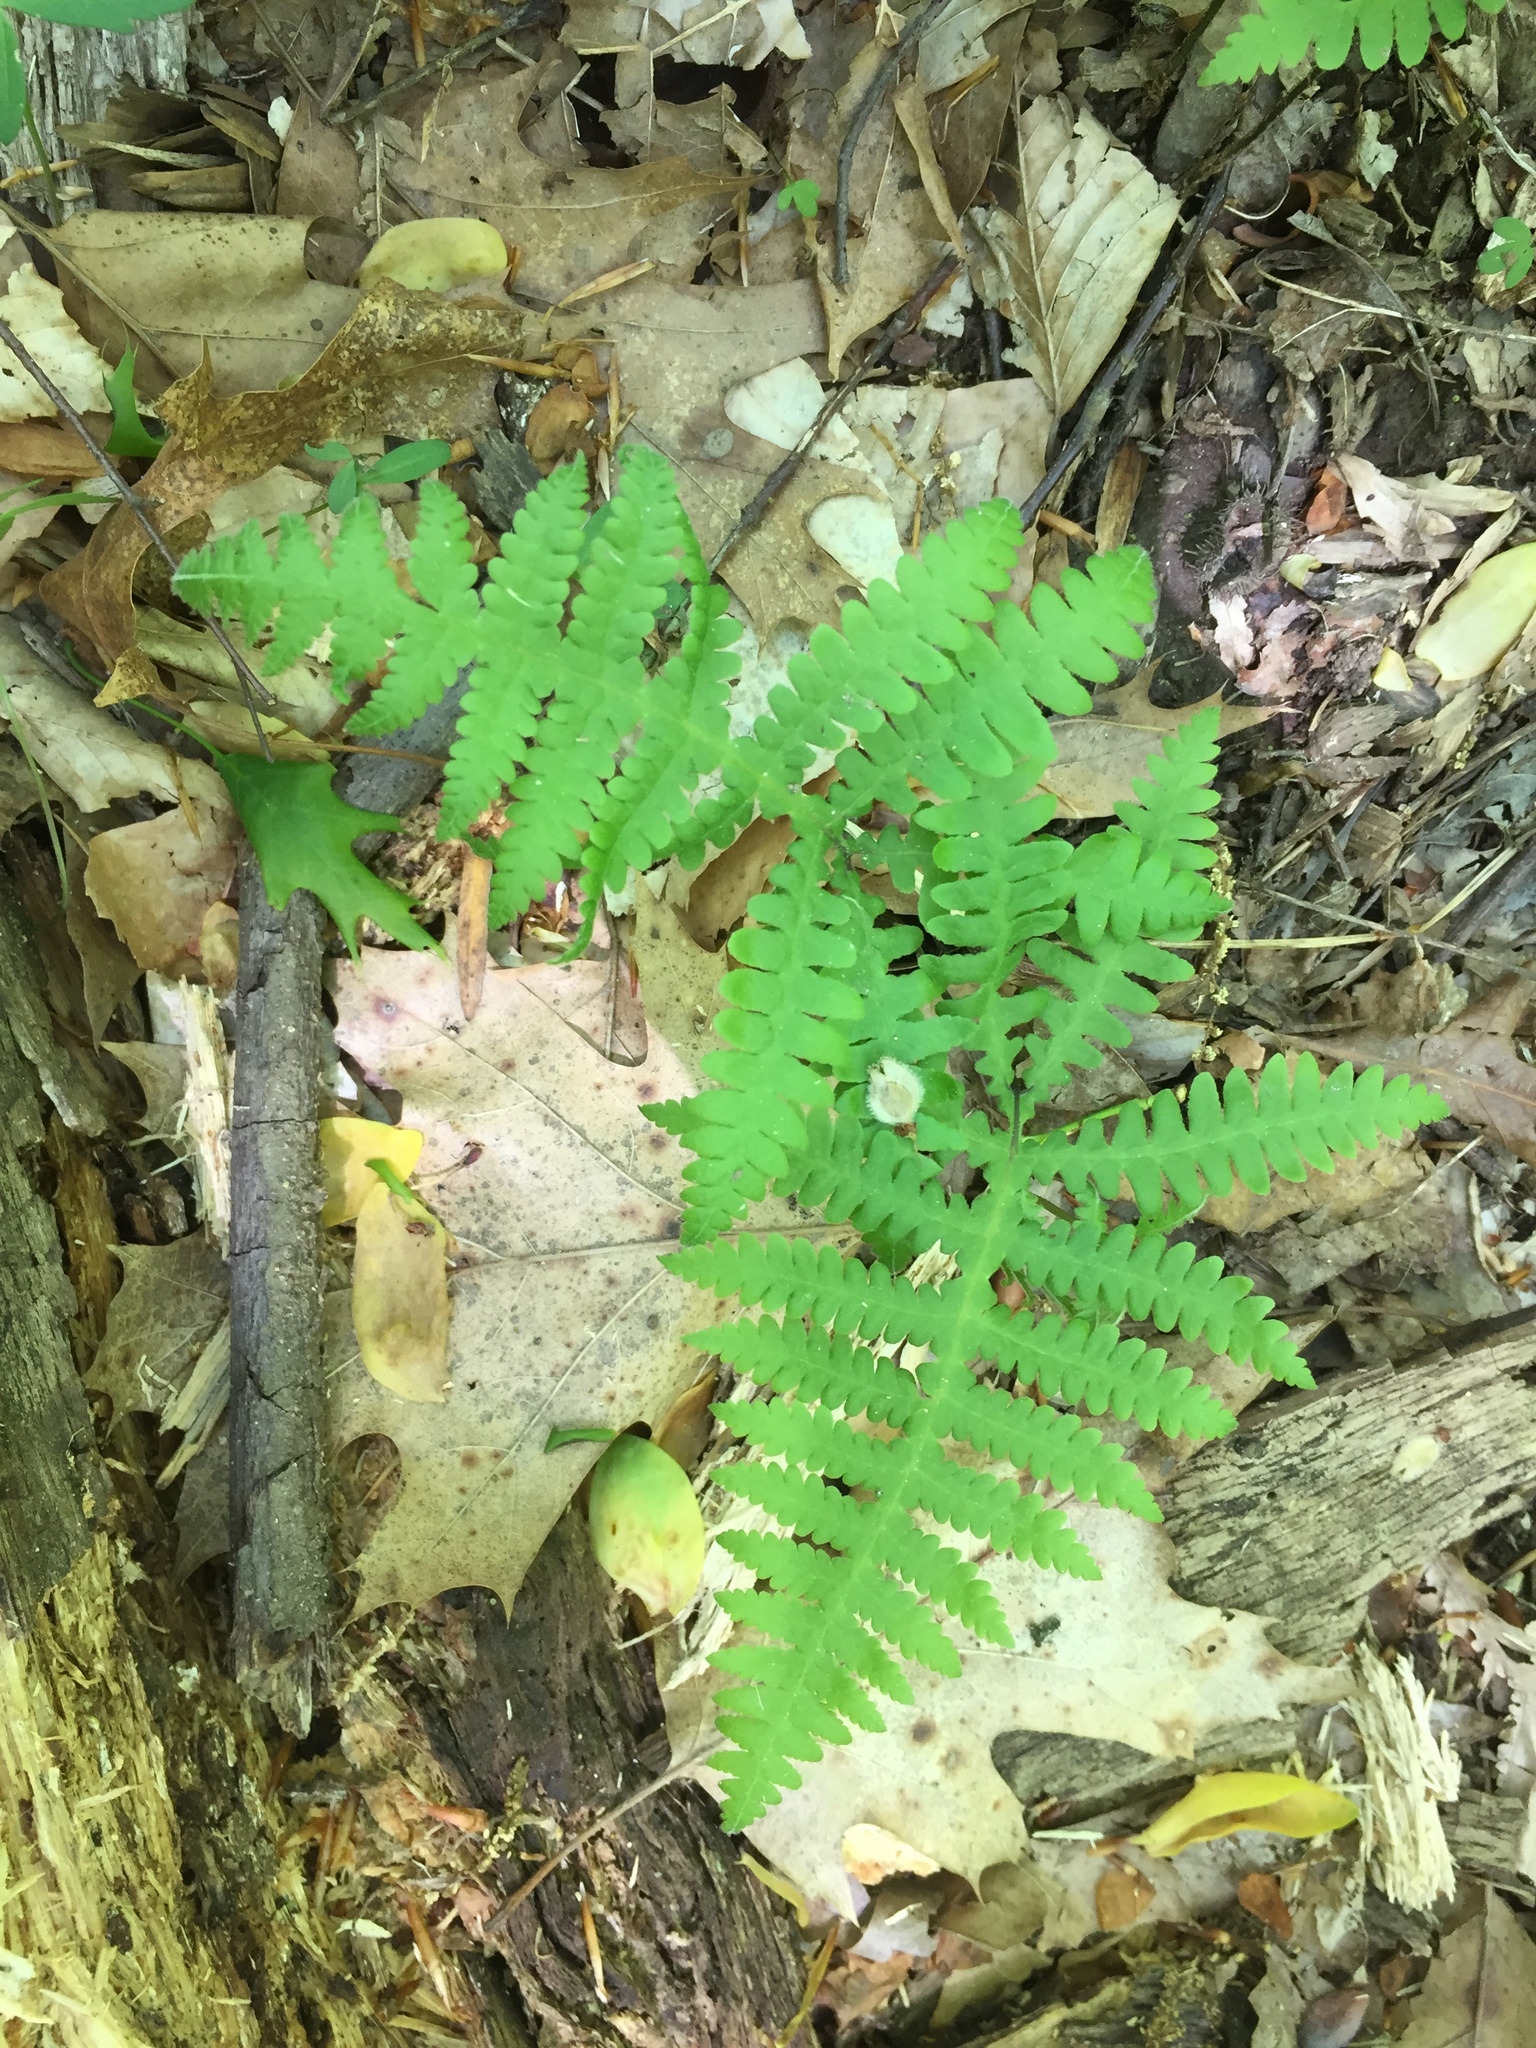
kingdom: Plantae
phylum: Tracheophyta
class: Polypodiopsida
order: Polypodiales
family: Thelypteridaceae
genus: Phegopteris
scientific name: Phegopteris hexagonoptera
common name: Broad beech fern
